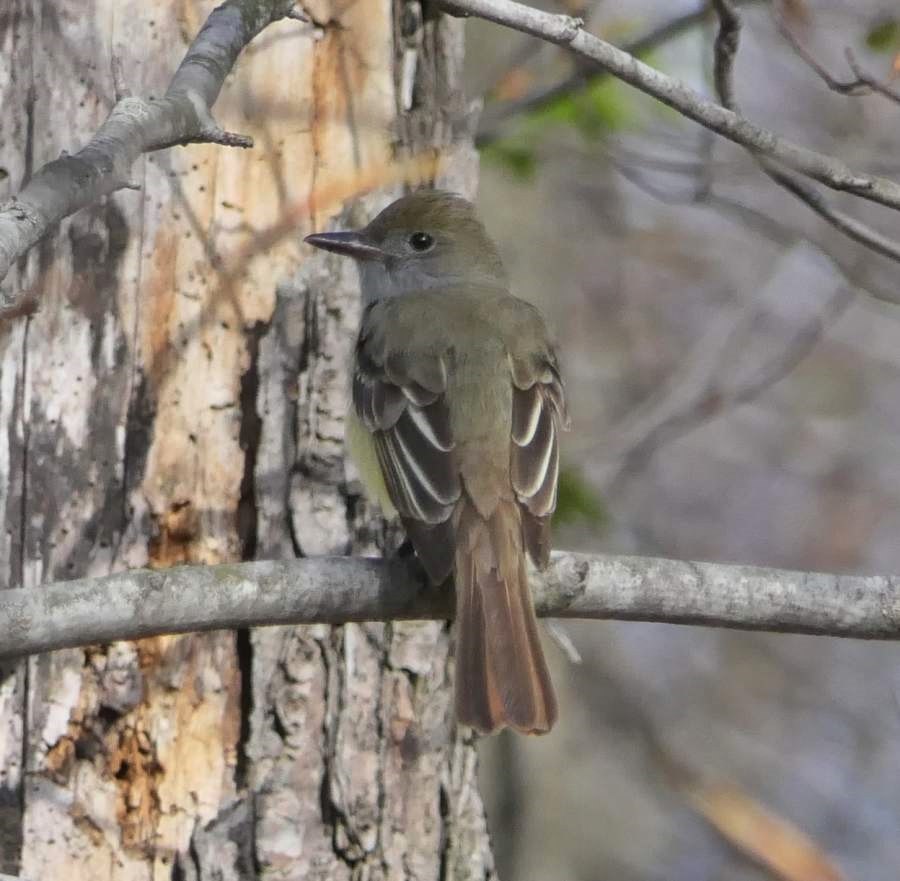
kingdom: Animalia
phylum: Chordata
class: Aves
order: Passeriformes
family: Tyrannidae
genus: Myiarchus
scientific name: Myiarchus crinitus
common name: Great crested flycatcher
